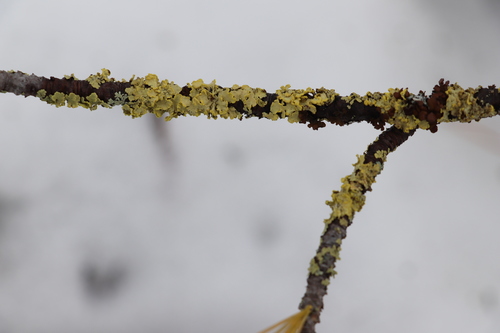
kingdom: Fungi
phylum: Ascomycota
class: Lecanoromycetes
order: Lecanorales
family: Parmeliaceae
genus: Vulpicida
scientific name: Vulpicida pinastri
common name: Powdered sunshine lichen
